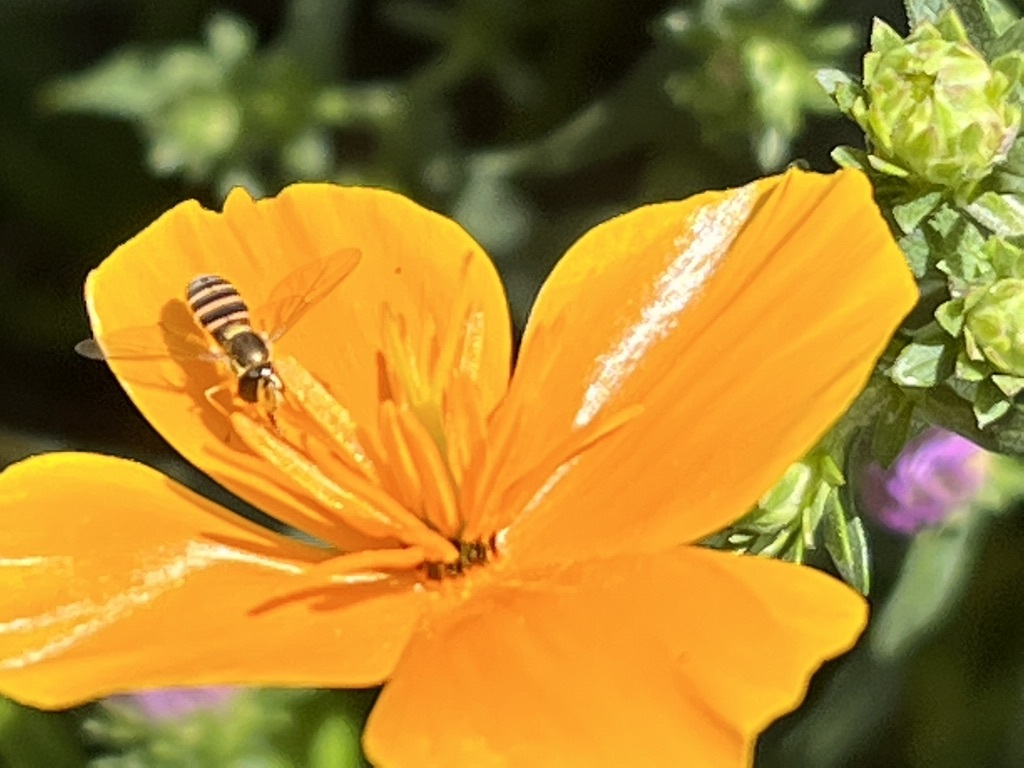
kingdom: Animalia
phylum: Arthropoda
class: Insecta
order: Diptera
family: Syrphidae
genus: Sphaerophoria
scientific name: Sphaerophoria sulphuripes
